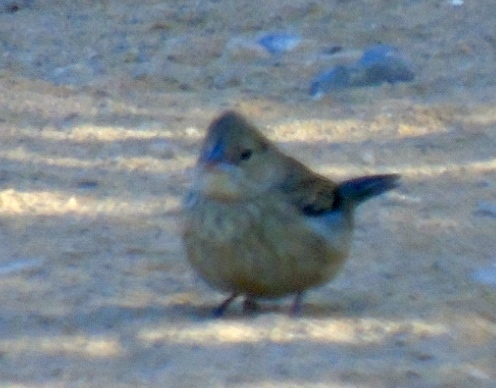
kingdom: Animalia
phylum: Chordata
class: Aves
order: Passeriformes
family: Thraupidae
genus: Volatinia
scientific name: Volatinia jacarina
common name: Blue-black grassquit
